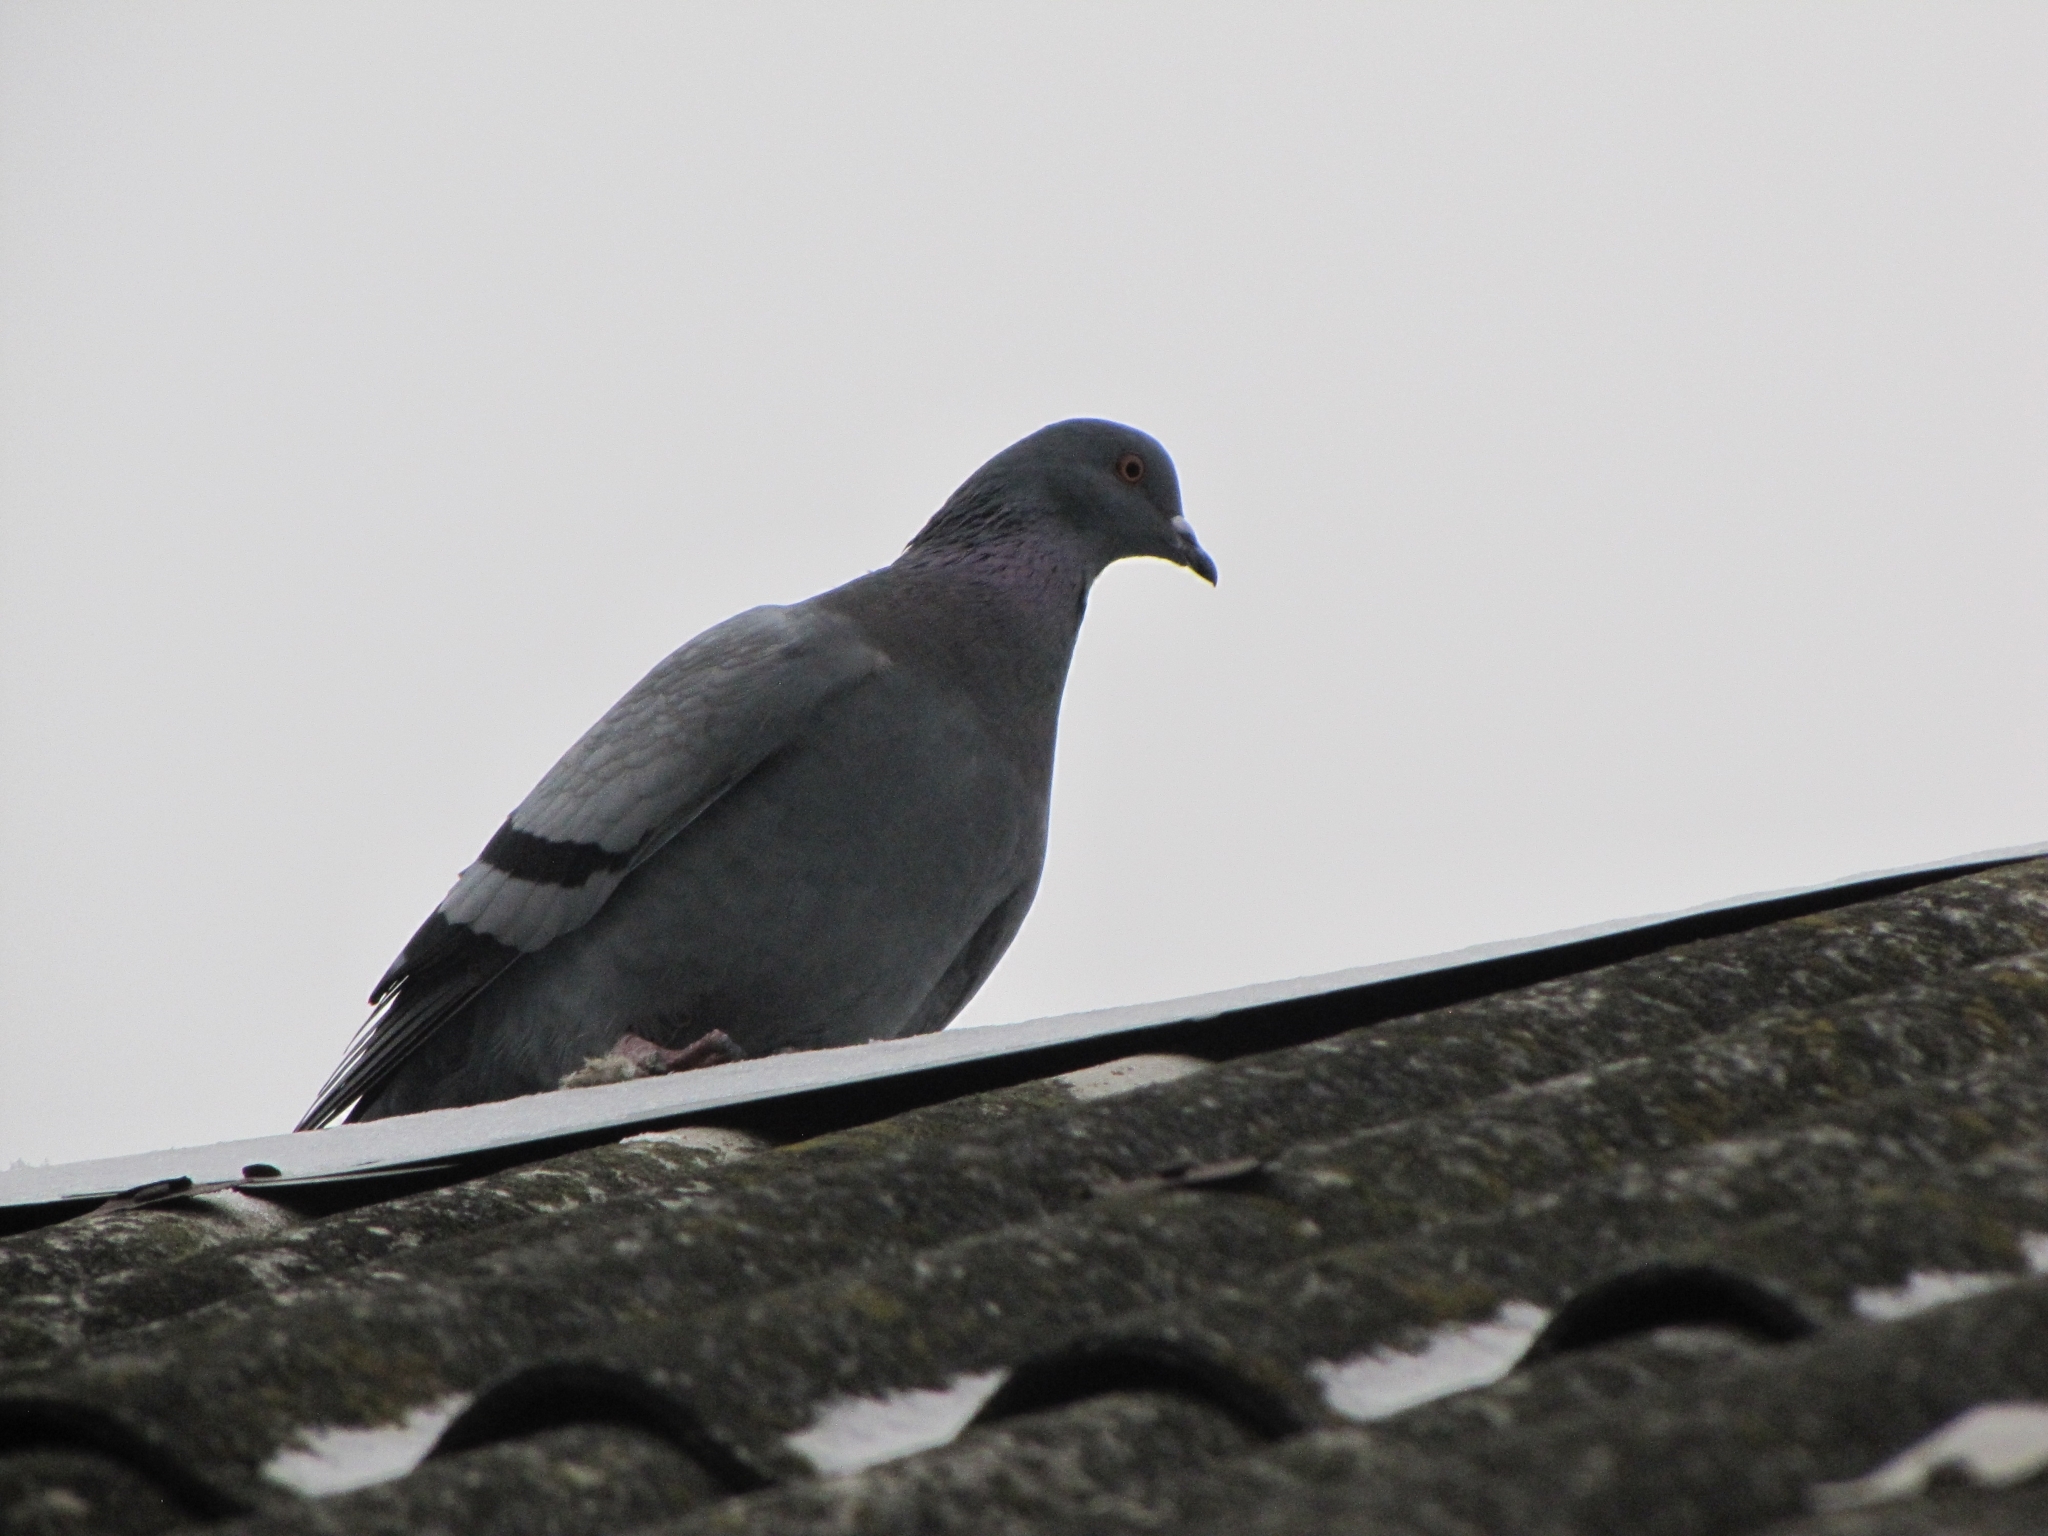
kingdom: Animalia
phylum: Chordata
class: Aves
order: Columbiformes
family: Columbidae
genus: Columba
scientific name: Columba livia
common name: Rock pigeon
